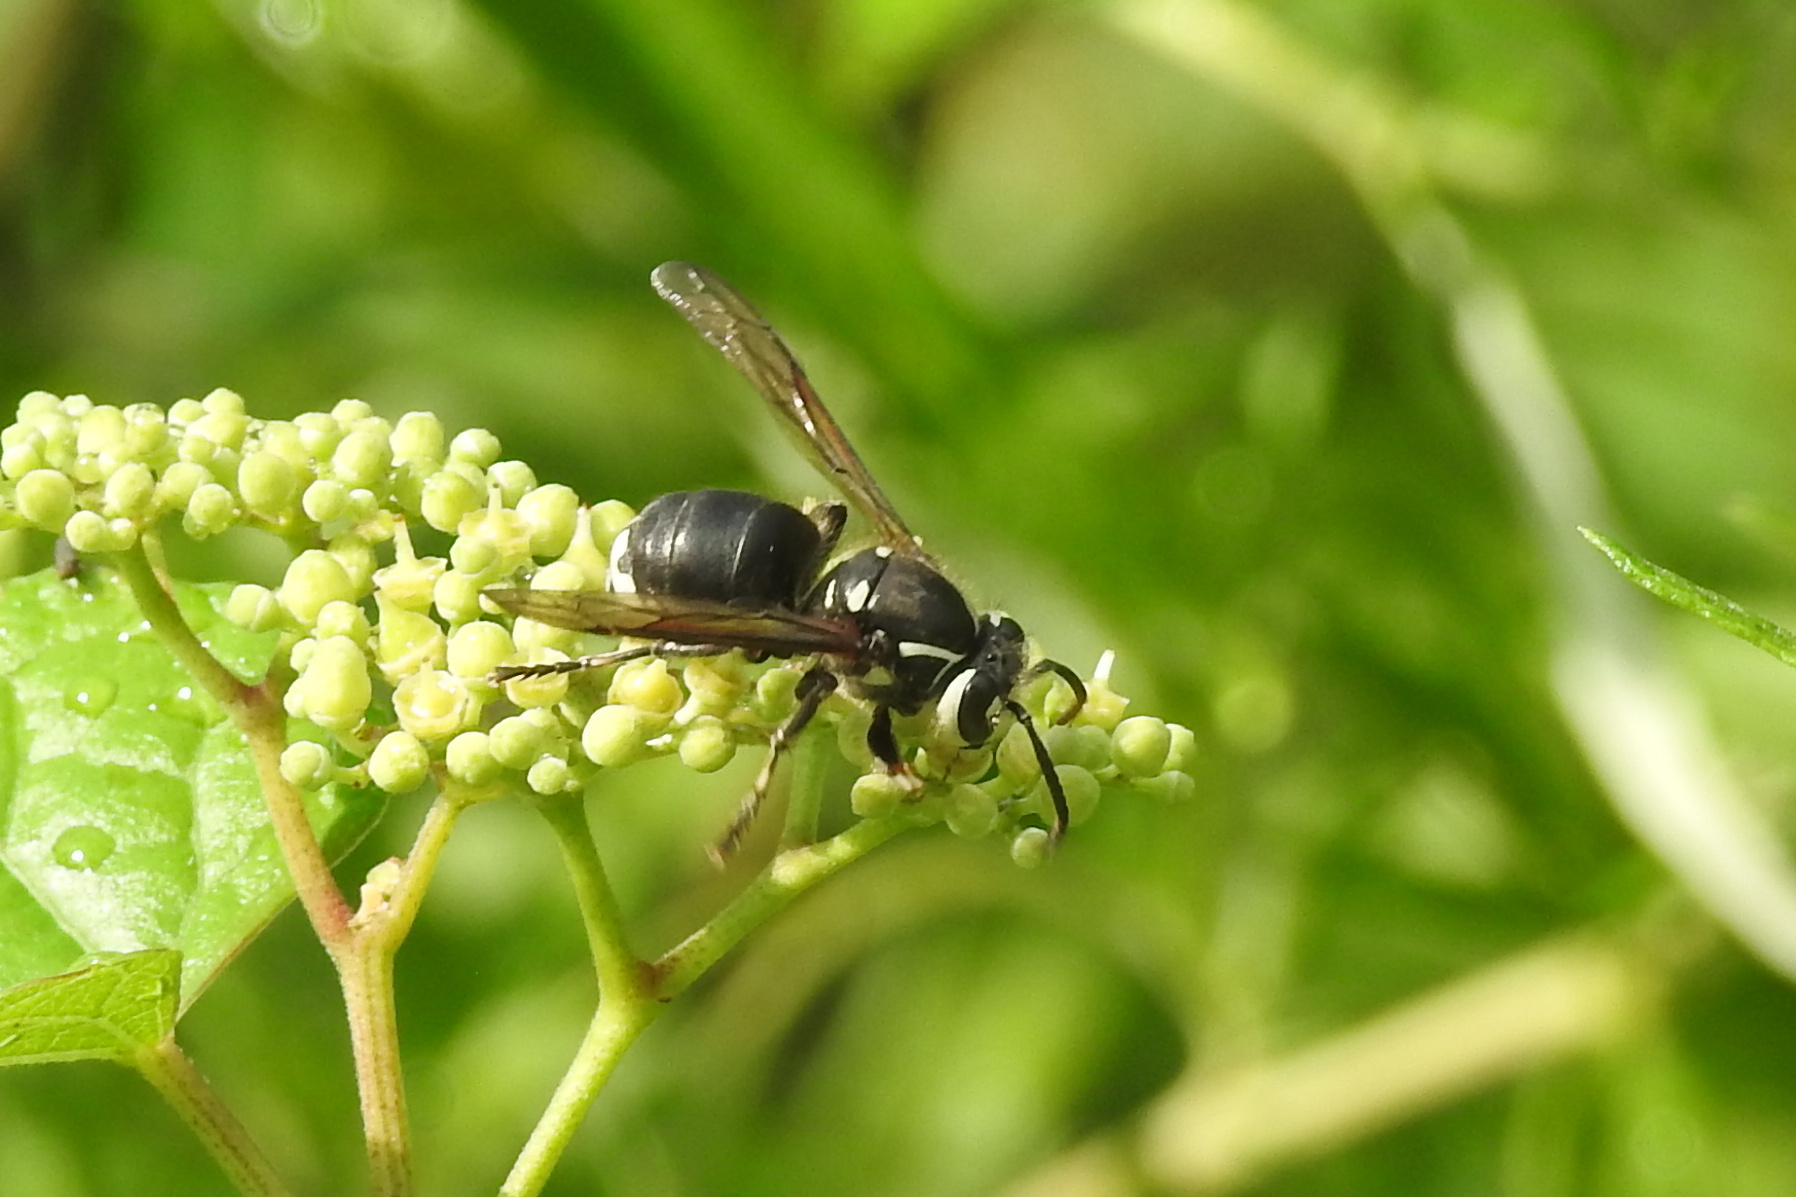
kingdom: Animalia
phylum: Arthropoda
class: Insecta
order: Hymenoptera
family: Vespidae
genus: Dolichovespula
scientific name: Dolichovespula maculata
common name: Bald-faced hornet
